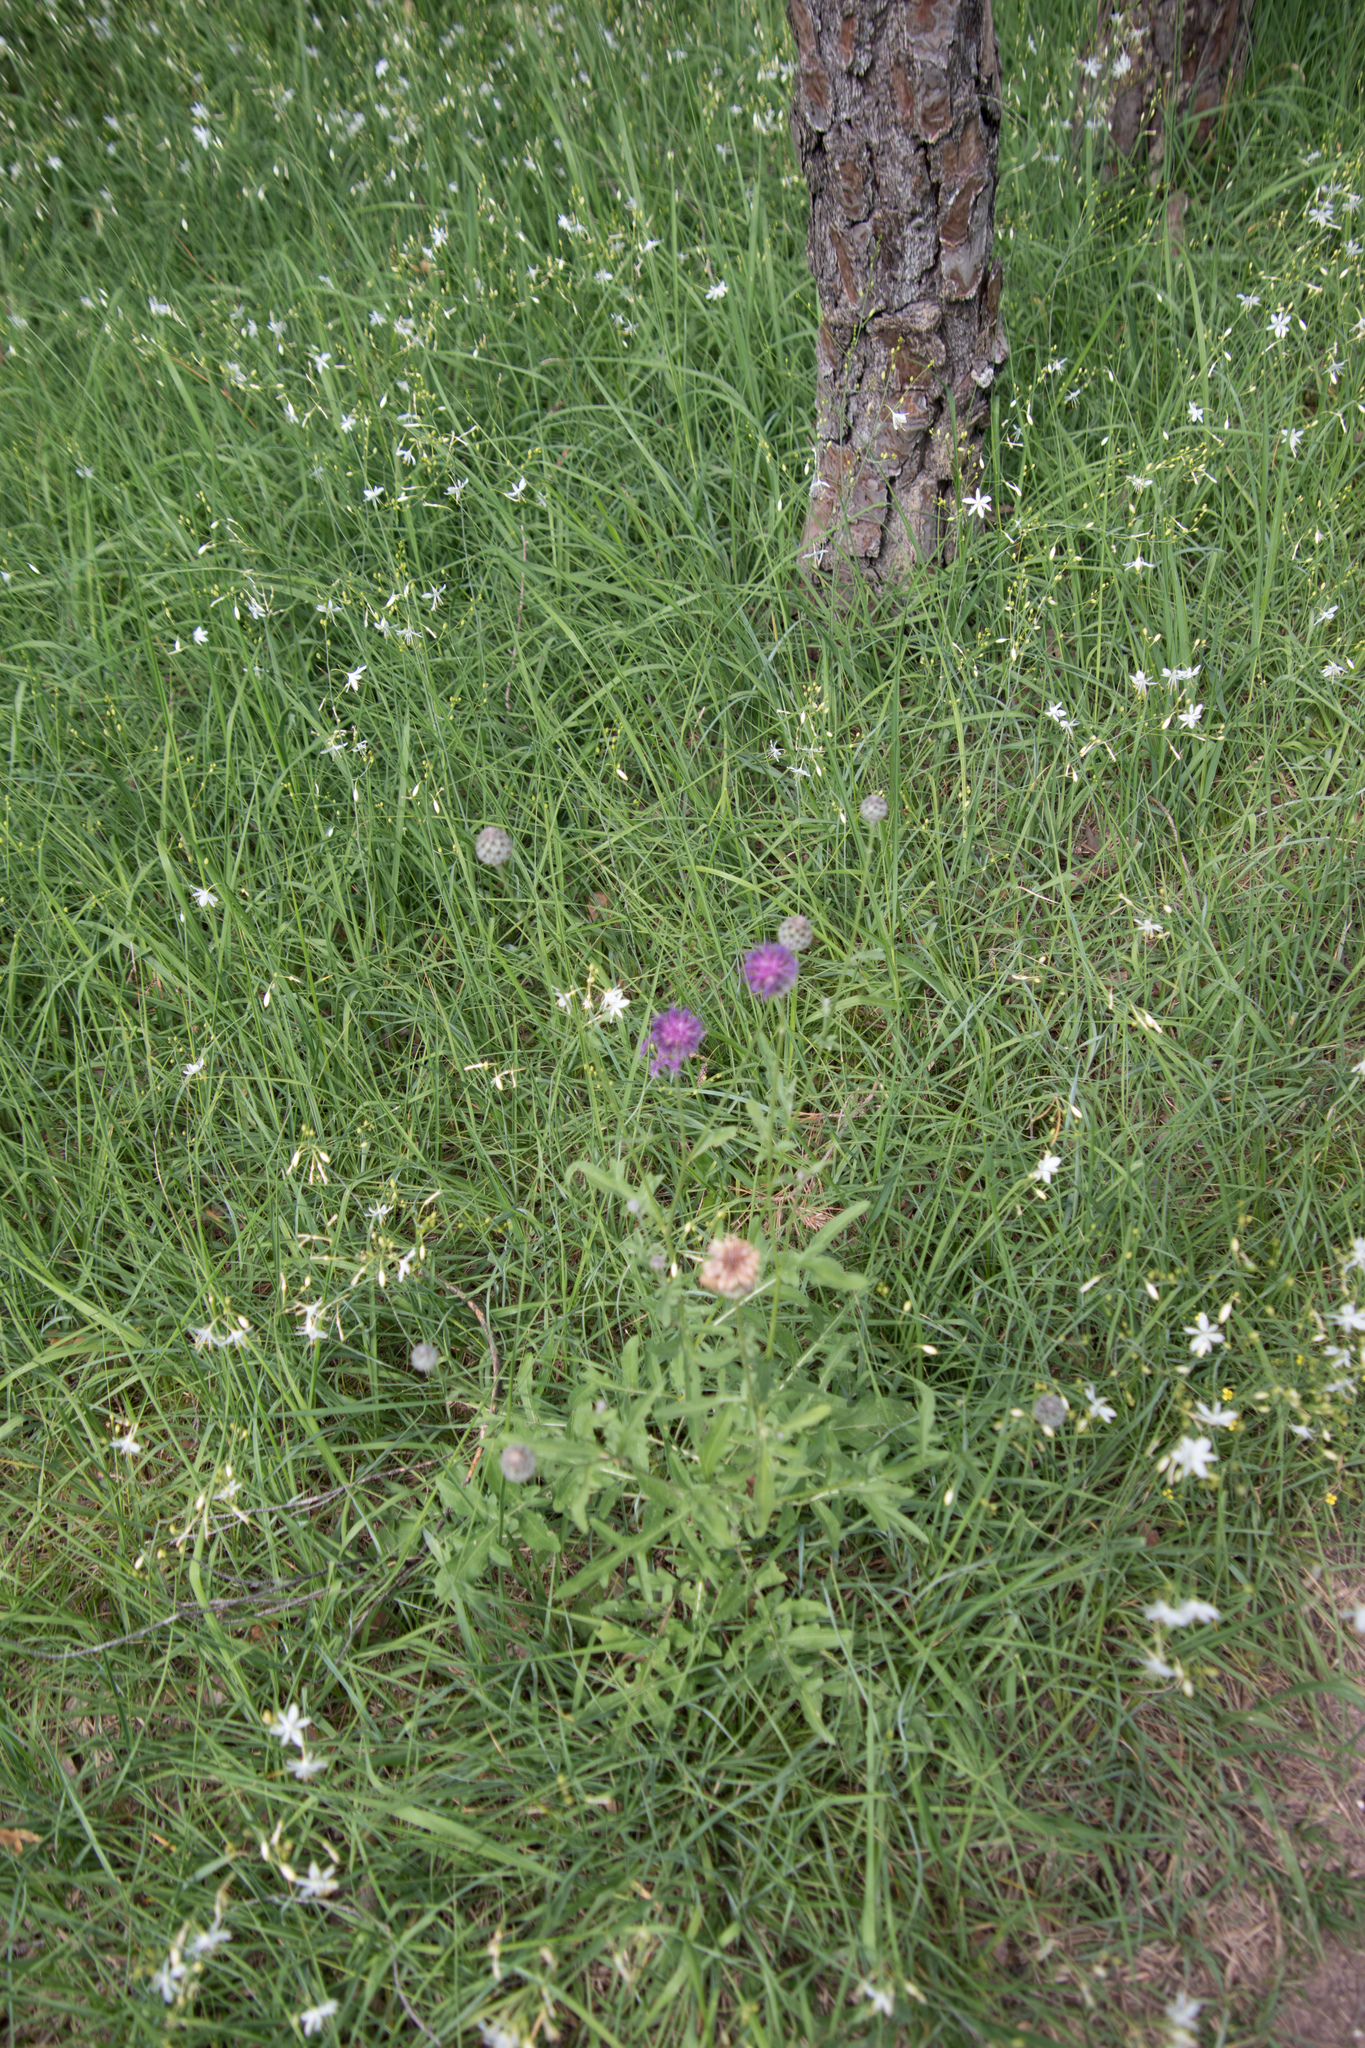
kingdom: Plantae
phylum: Tracheophyta
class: Magnoliopsida
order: Asterales
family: Asteraceae
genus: Centaurea
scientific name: Centaurea scabiosa
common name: Greater knapweed
